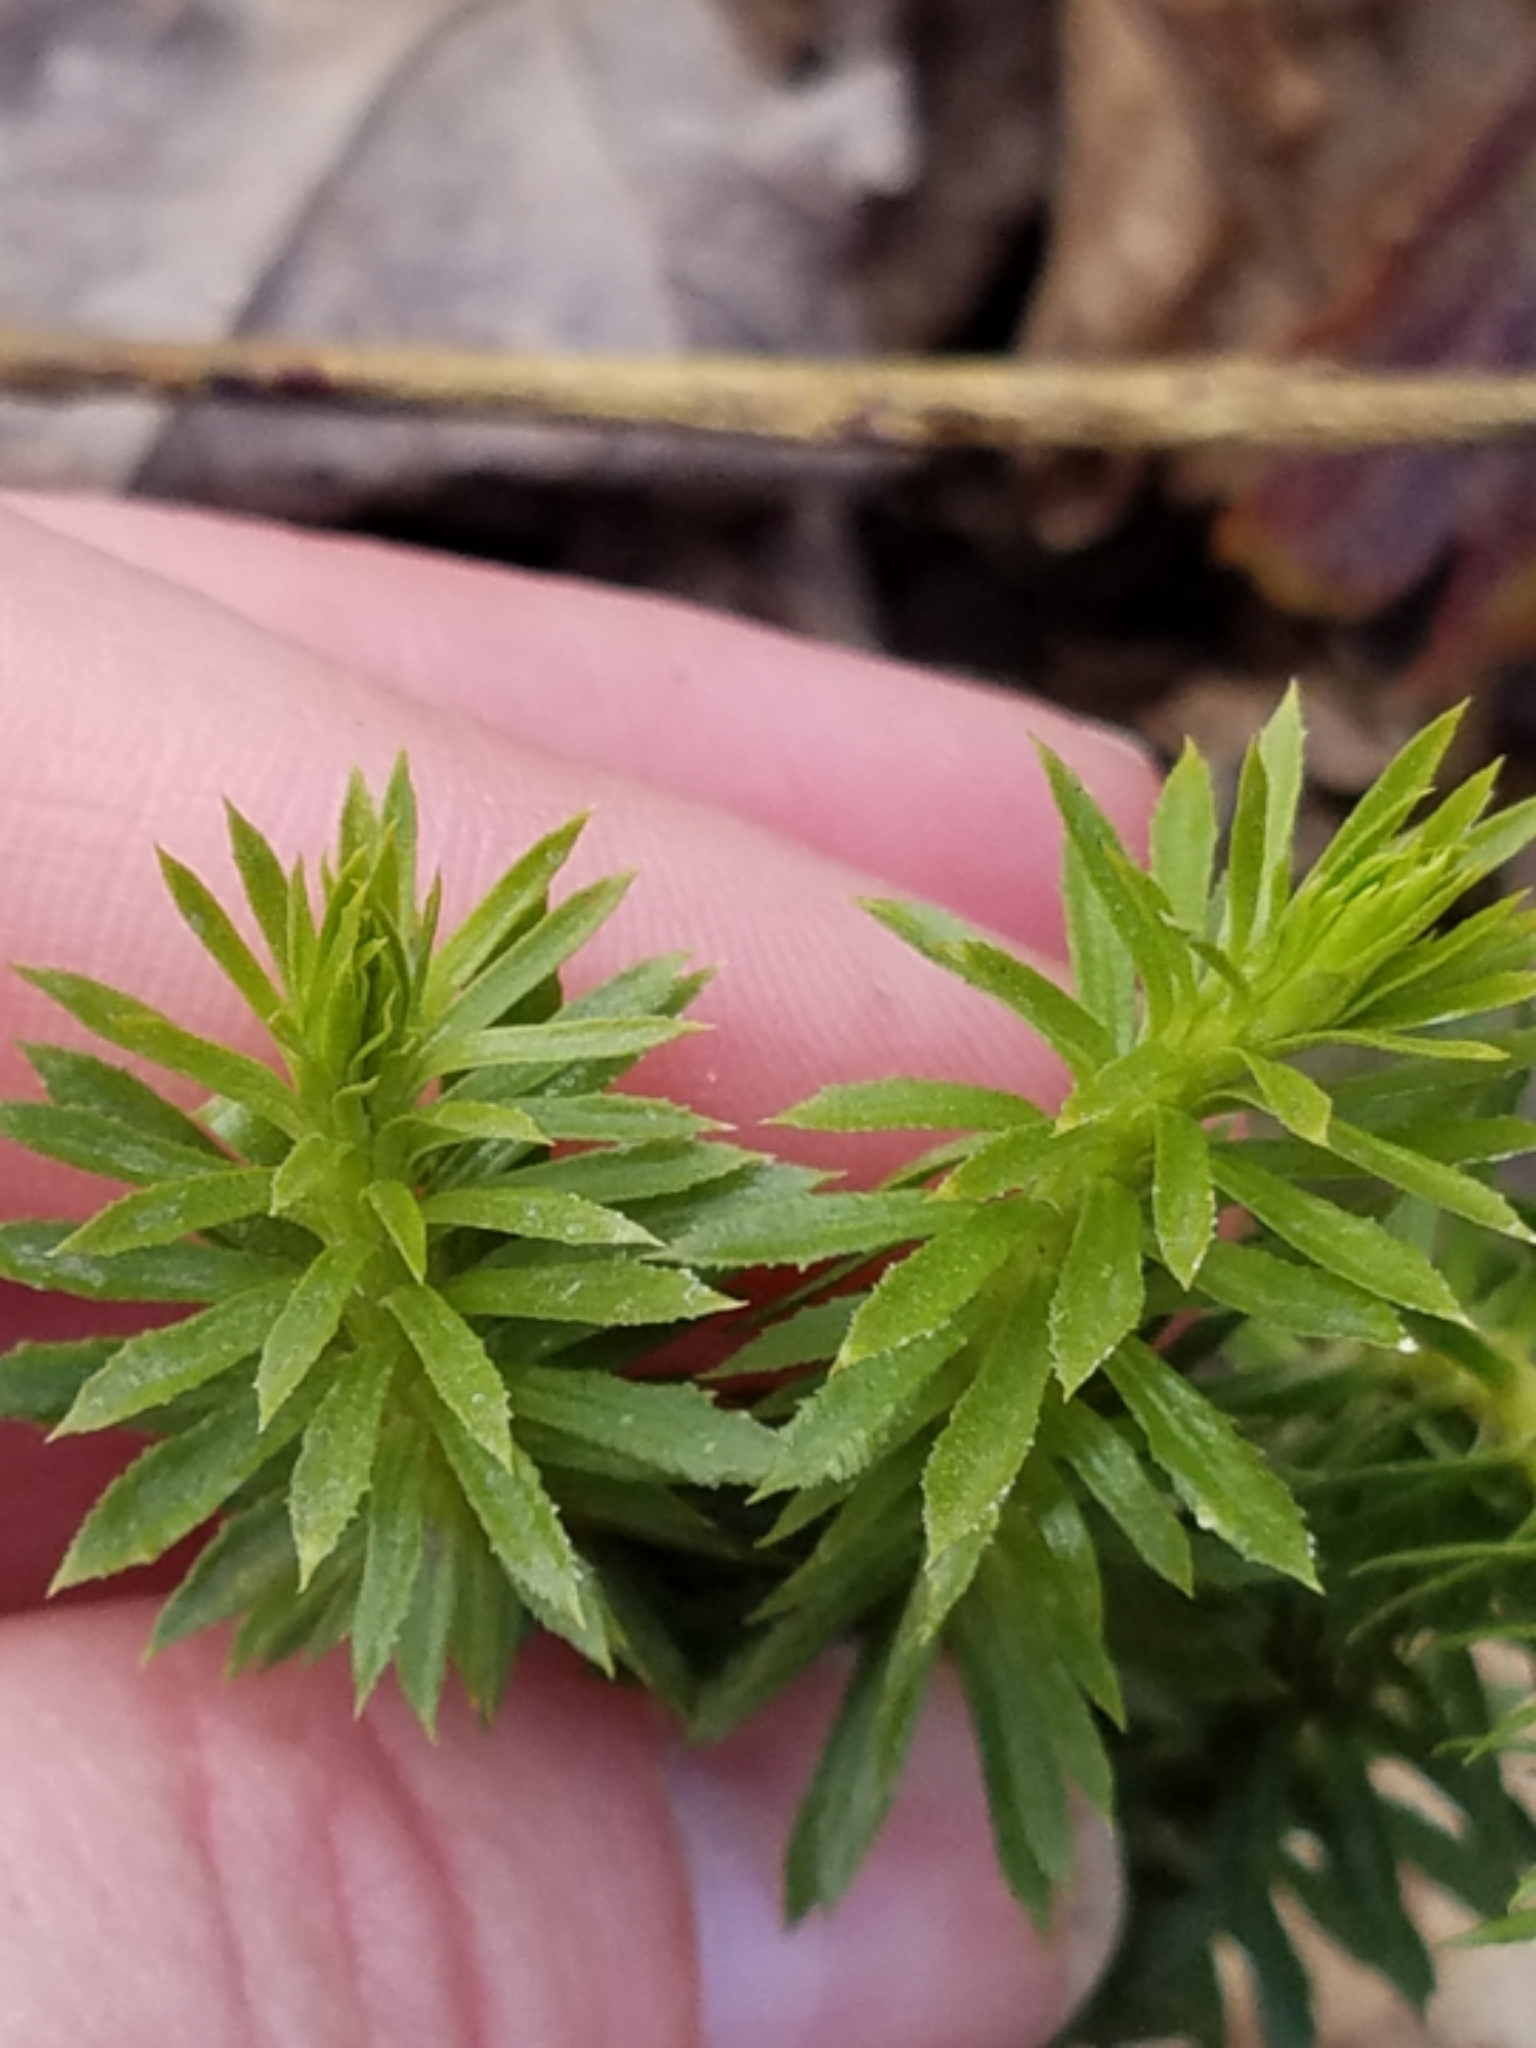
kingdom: Plantae
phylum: Tracheophyta
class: Lycopodiopsida
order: Lycopodiales
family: Lycopodiaceae
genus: Huperzia
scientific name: Huperzia lucidula
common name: Shining clubmoss
